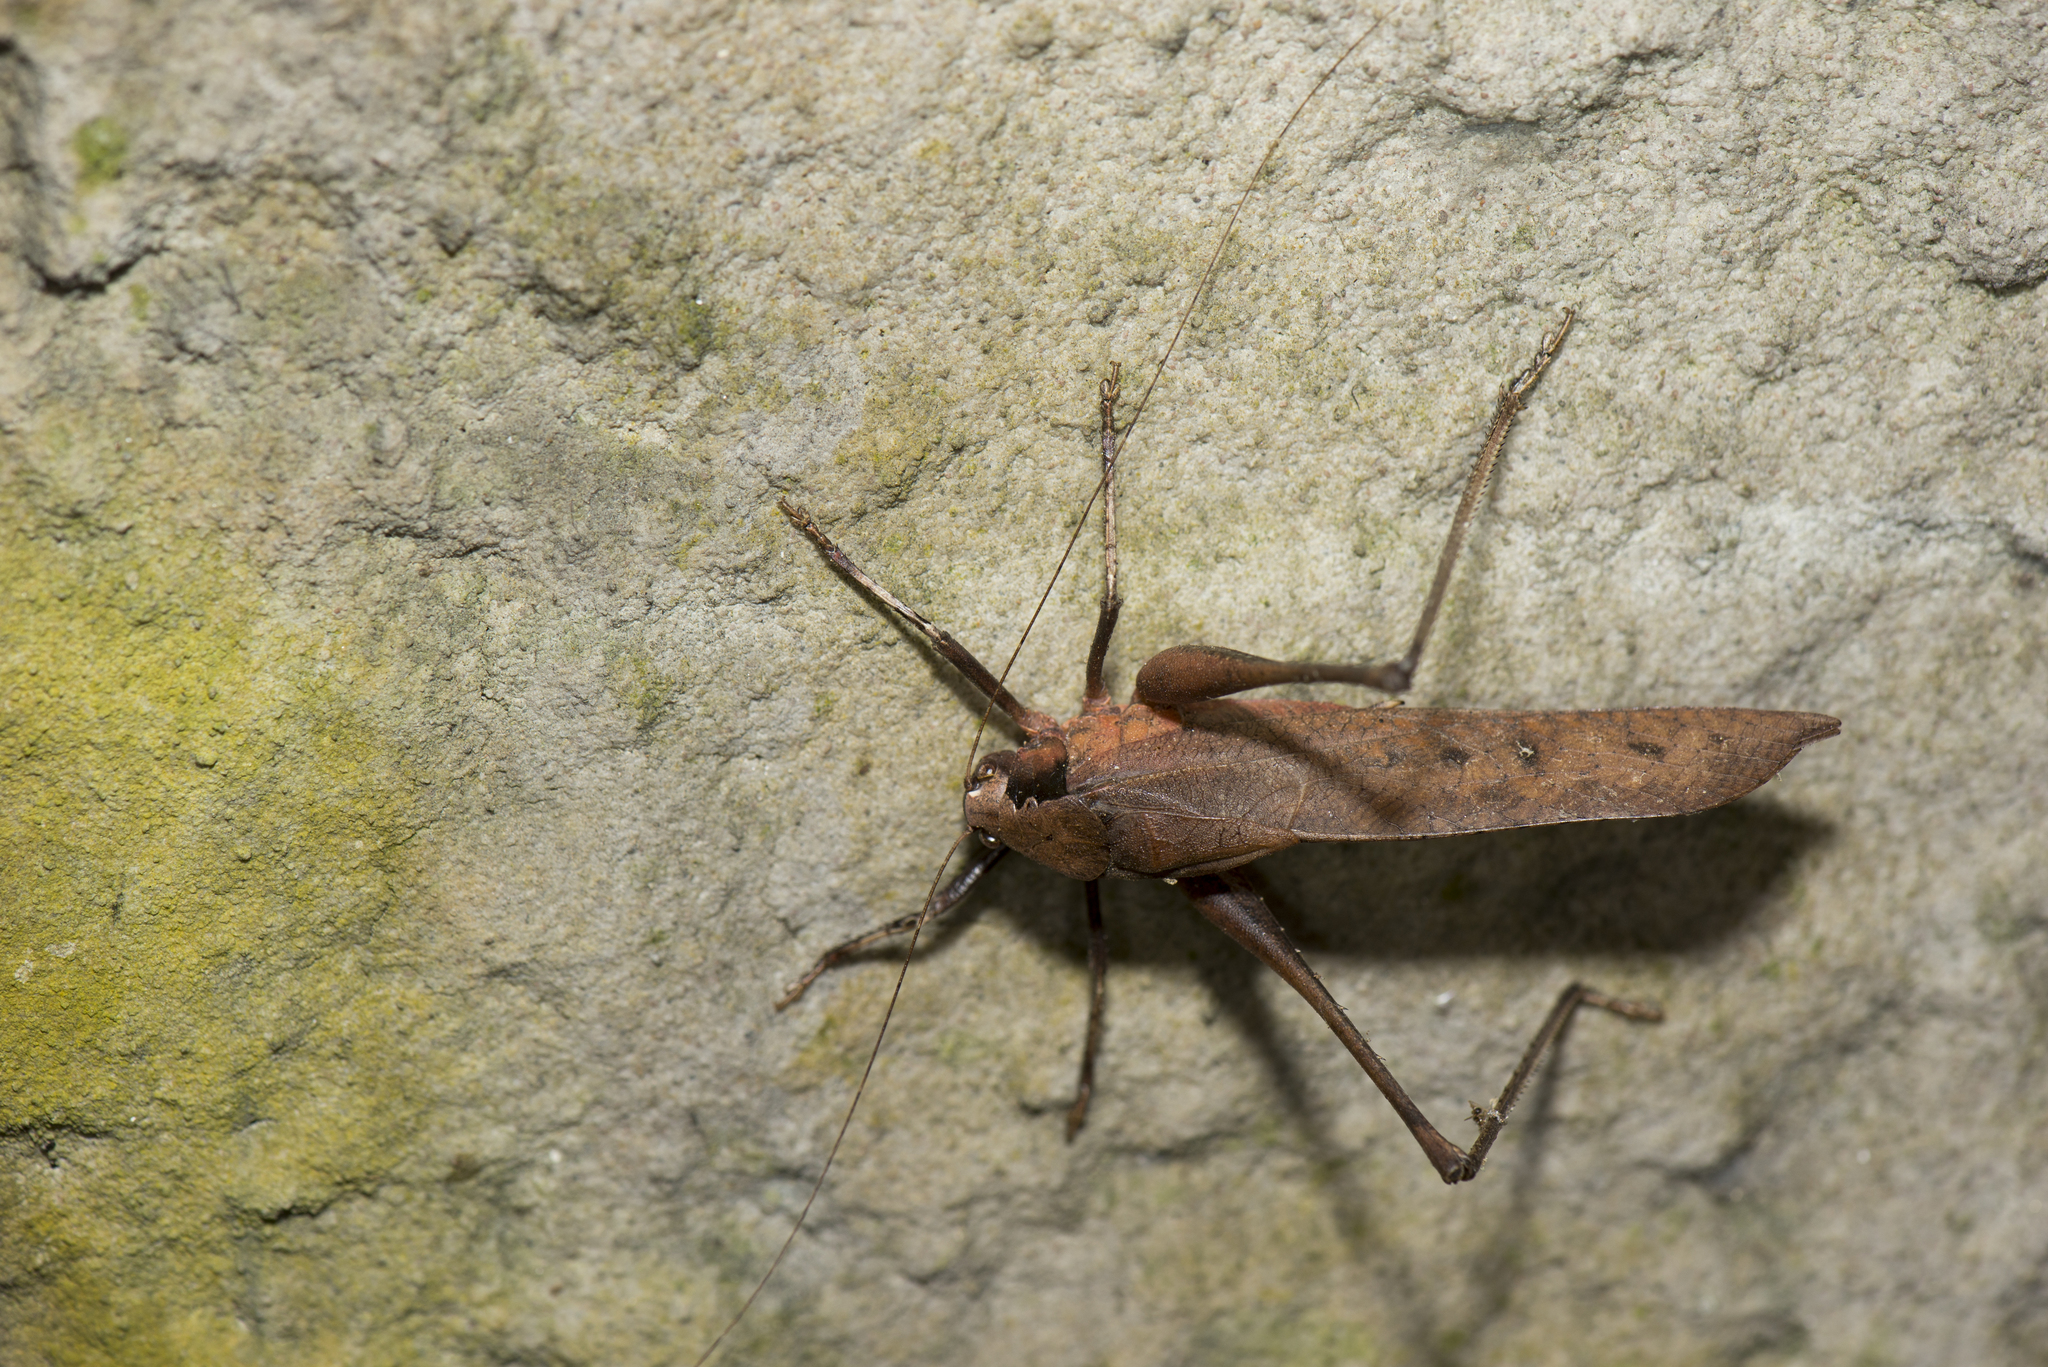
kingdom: Animalia
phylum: Arthropoda
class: Insecta
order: Orthoptera
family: Tettigoniidae
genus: Mecopoda
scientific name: Mecopoda elongata
